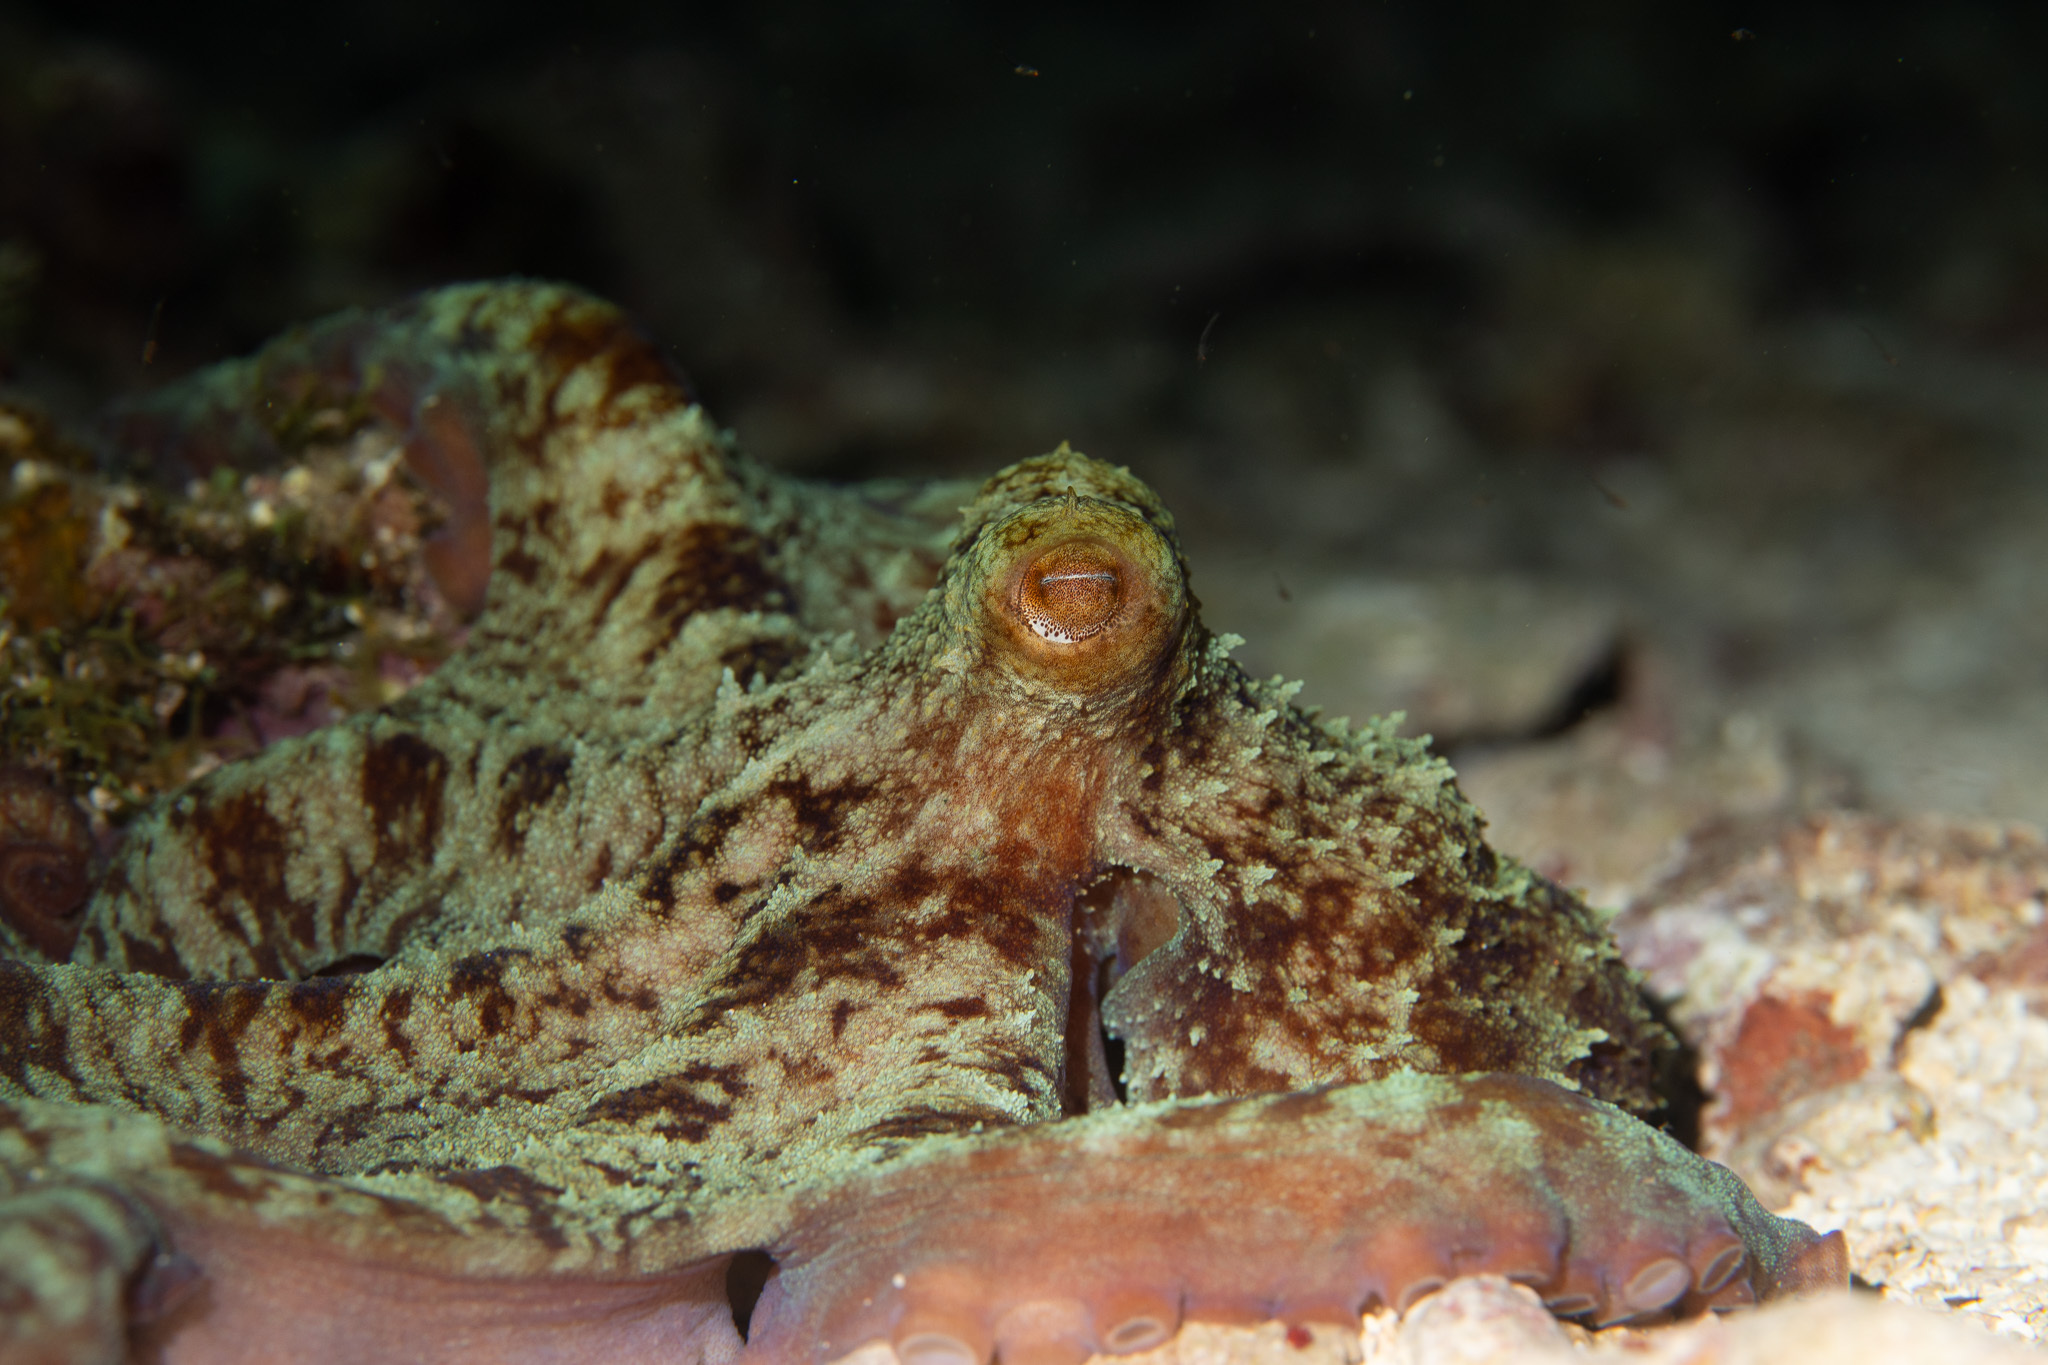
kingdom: Animalia
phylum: Mollusca
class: Cephalopoda
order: Octopoda
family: Octopodidae
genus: Octopus
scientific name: Octopus briareus
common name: Caribbean reef octopus
